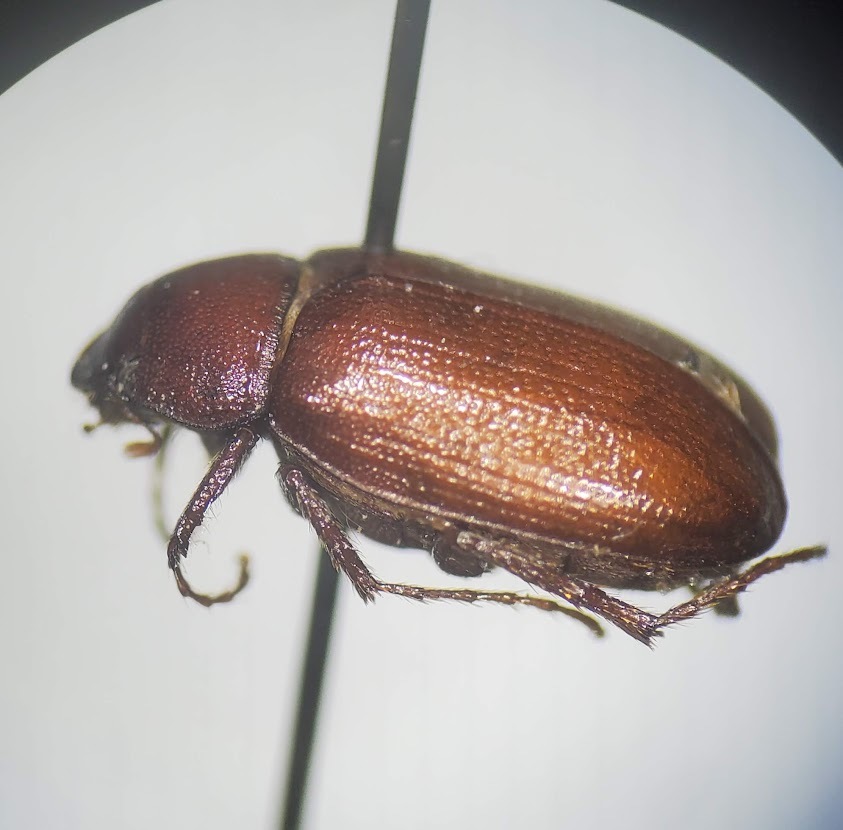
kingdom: Animalia
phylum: Arthropoda
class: Insecta
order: Coleoptera
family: Scarabaeidae
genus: Diplotaxis
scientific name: Diplotaxis harperi
